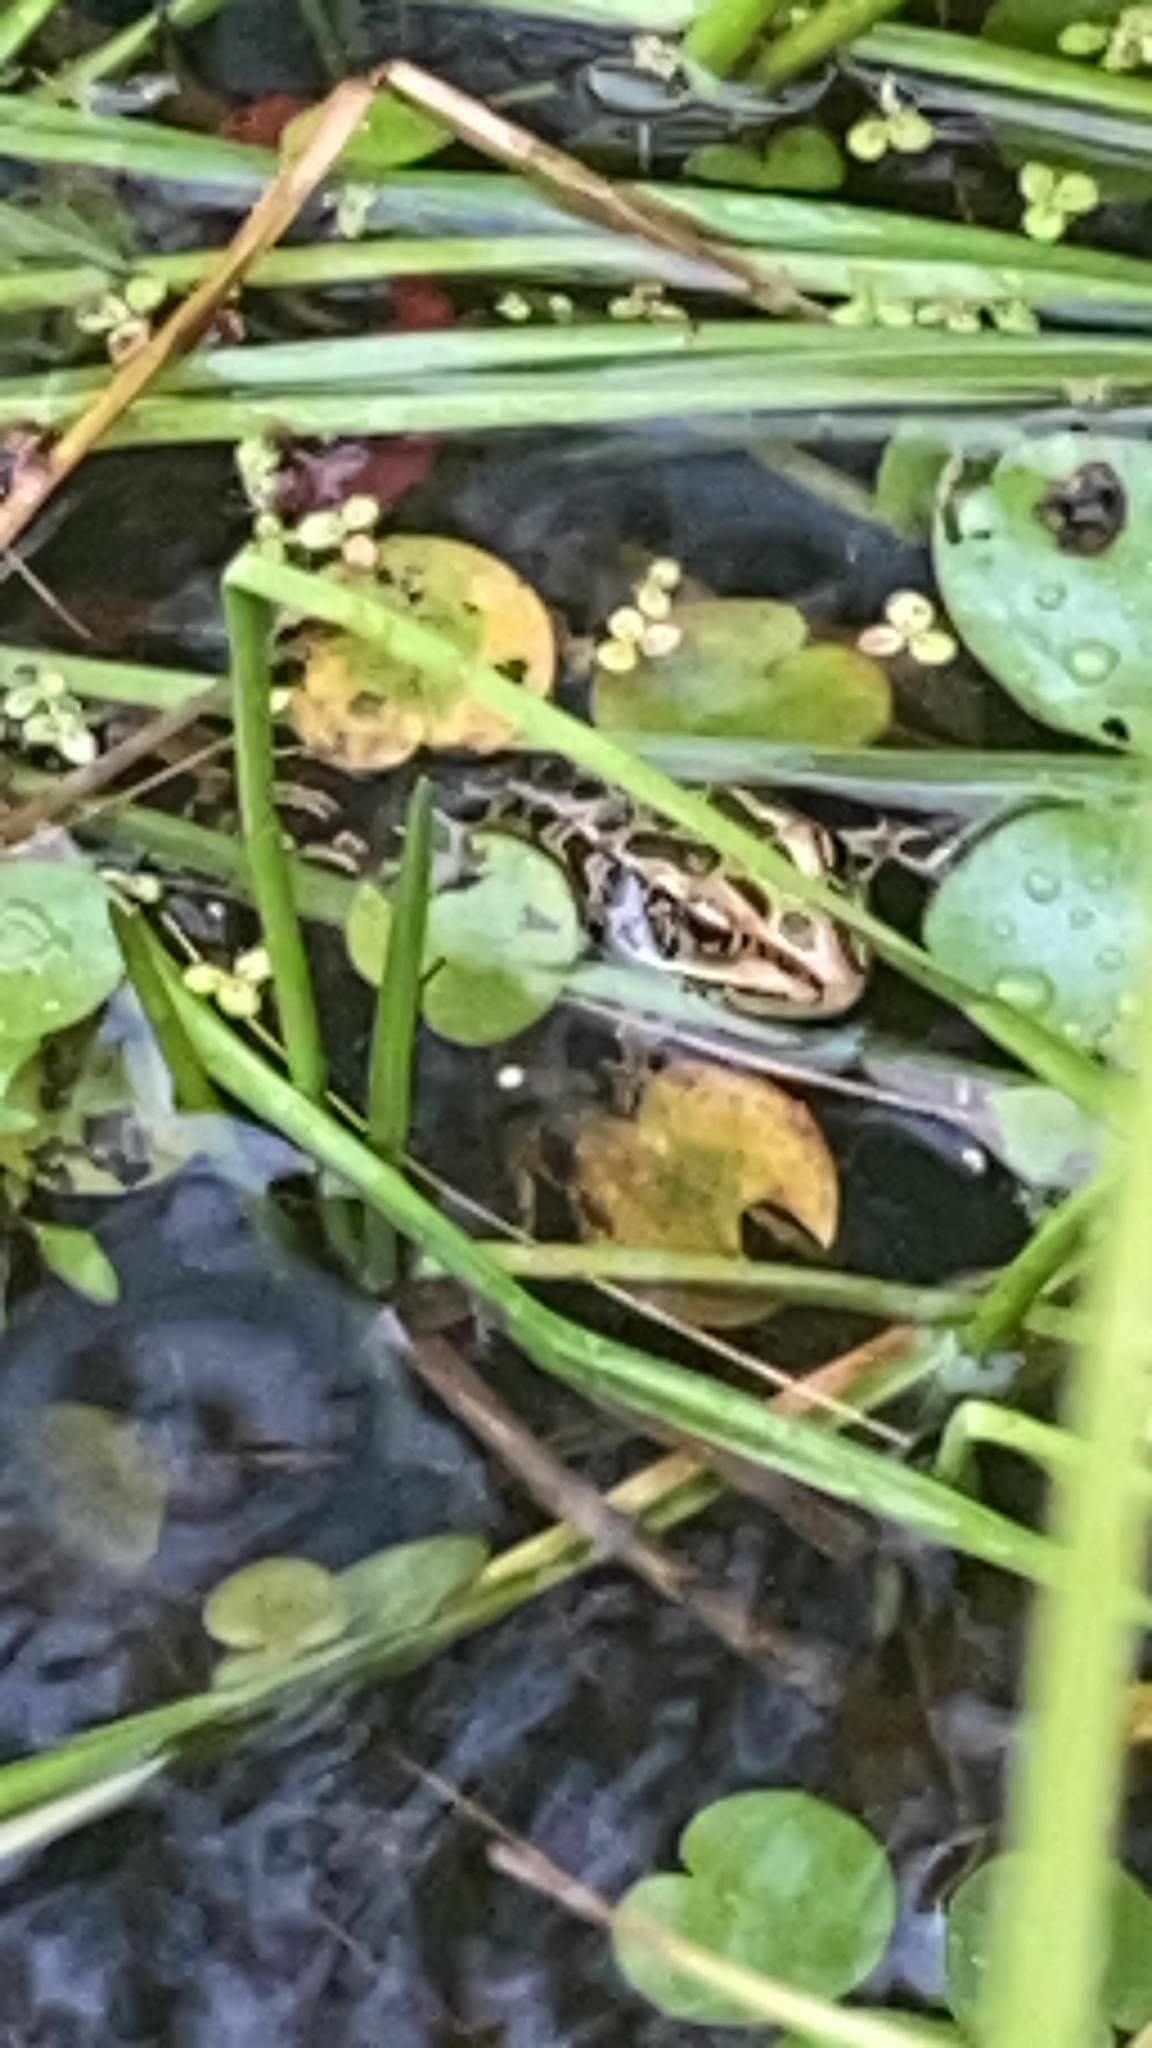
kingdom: Animalia
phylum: Chordata
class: Amphibia
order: Anura
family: Ranidae
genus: Lithobates
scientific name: Lithobates pipiens
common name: Northern leopard frog
